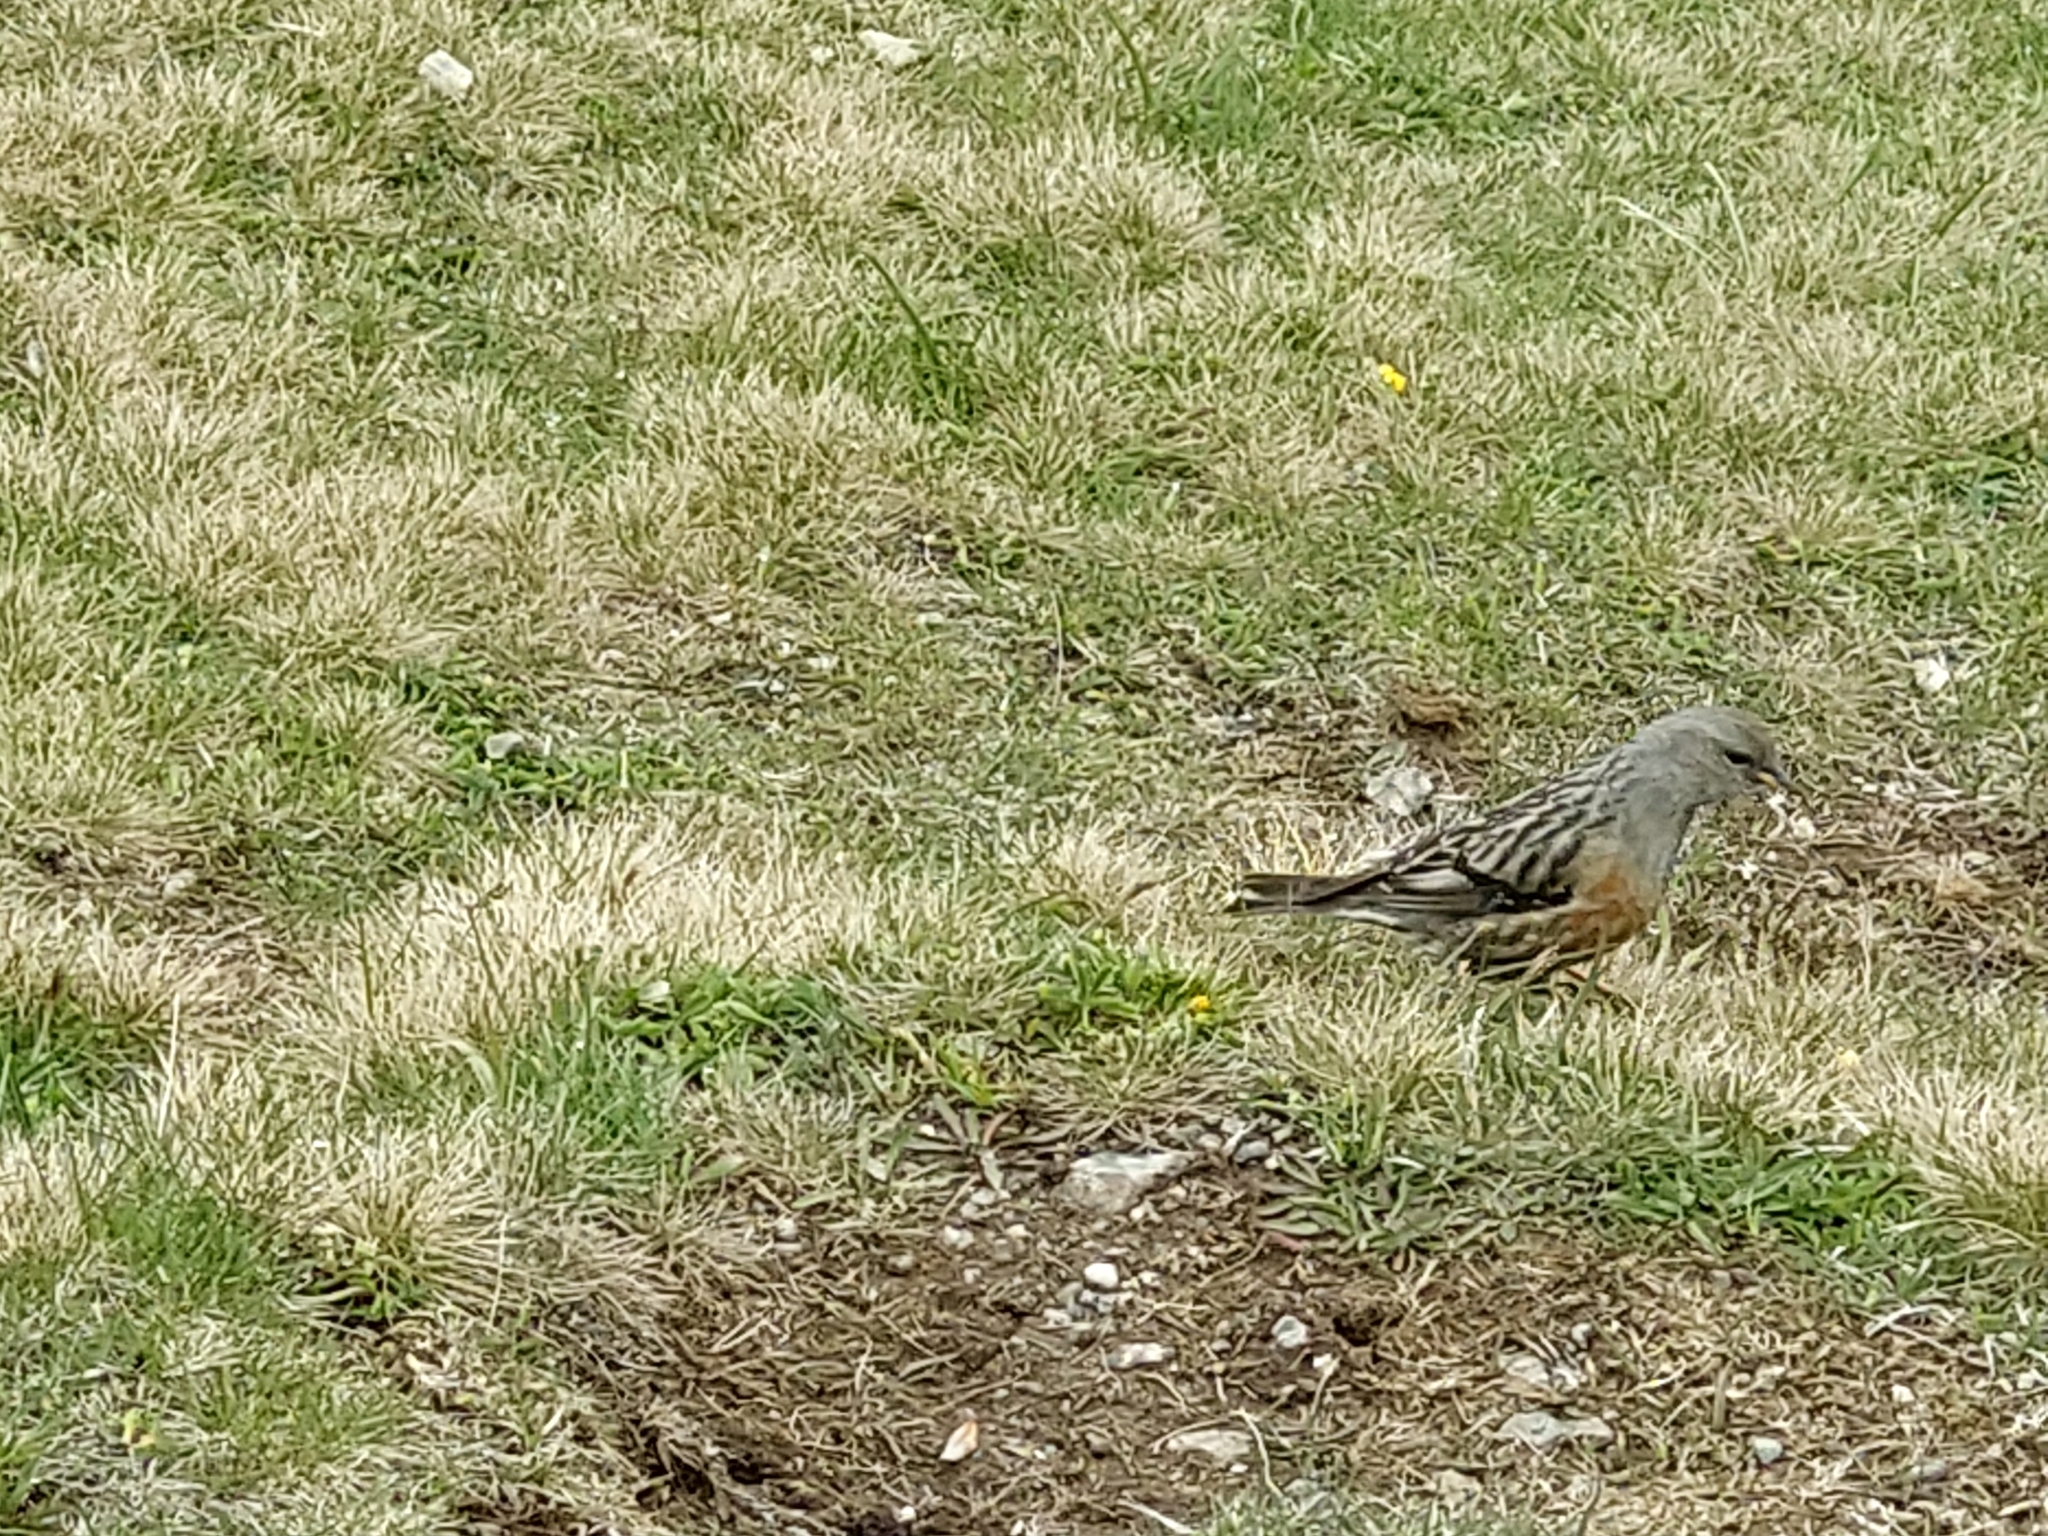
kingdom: Animalia
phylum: Chordata
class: Aves
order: Passeriformes
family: Prunellidae
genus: Prunella
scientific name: Prunella collaris
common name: Alpine accentor
